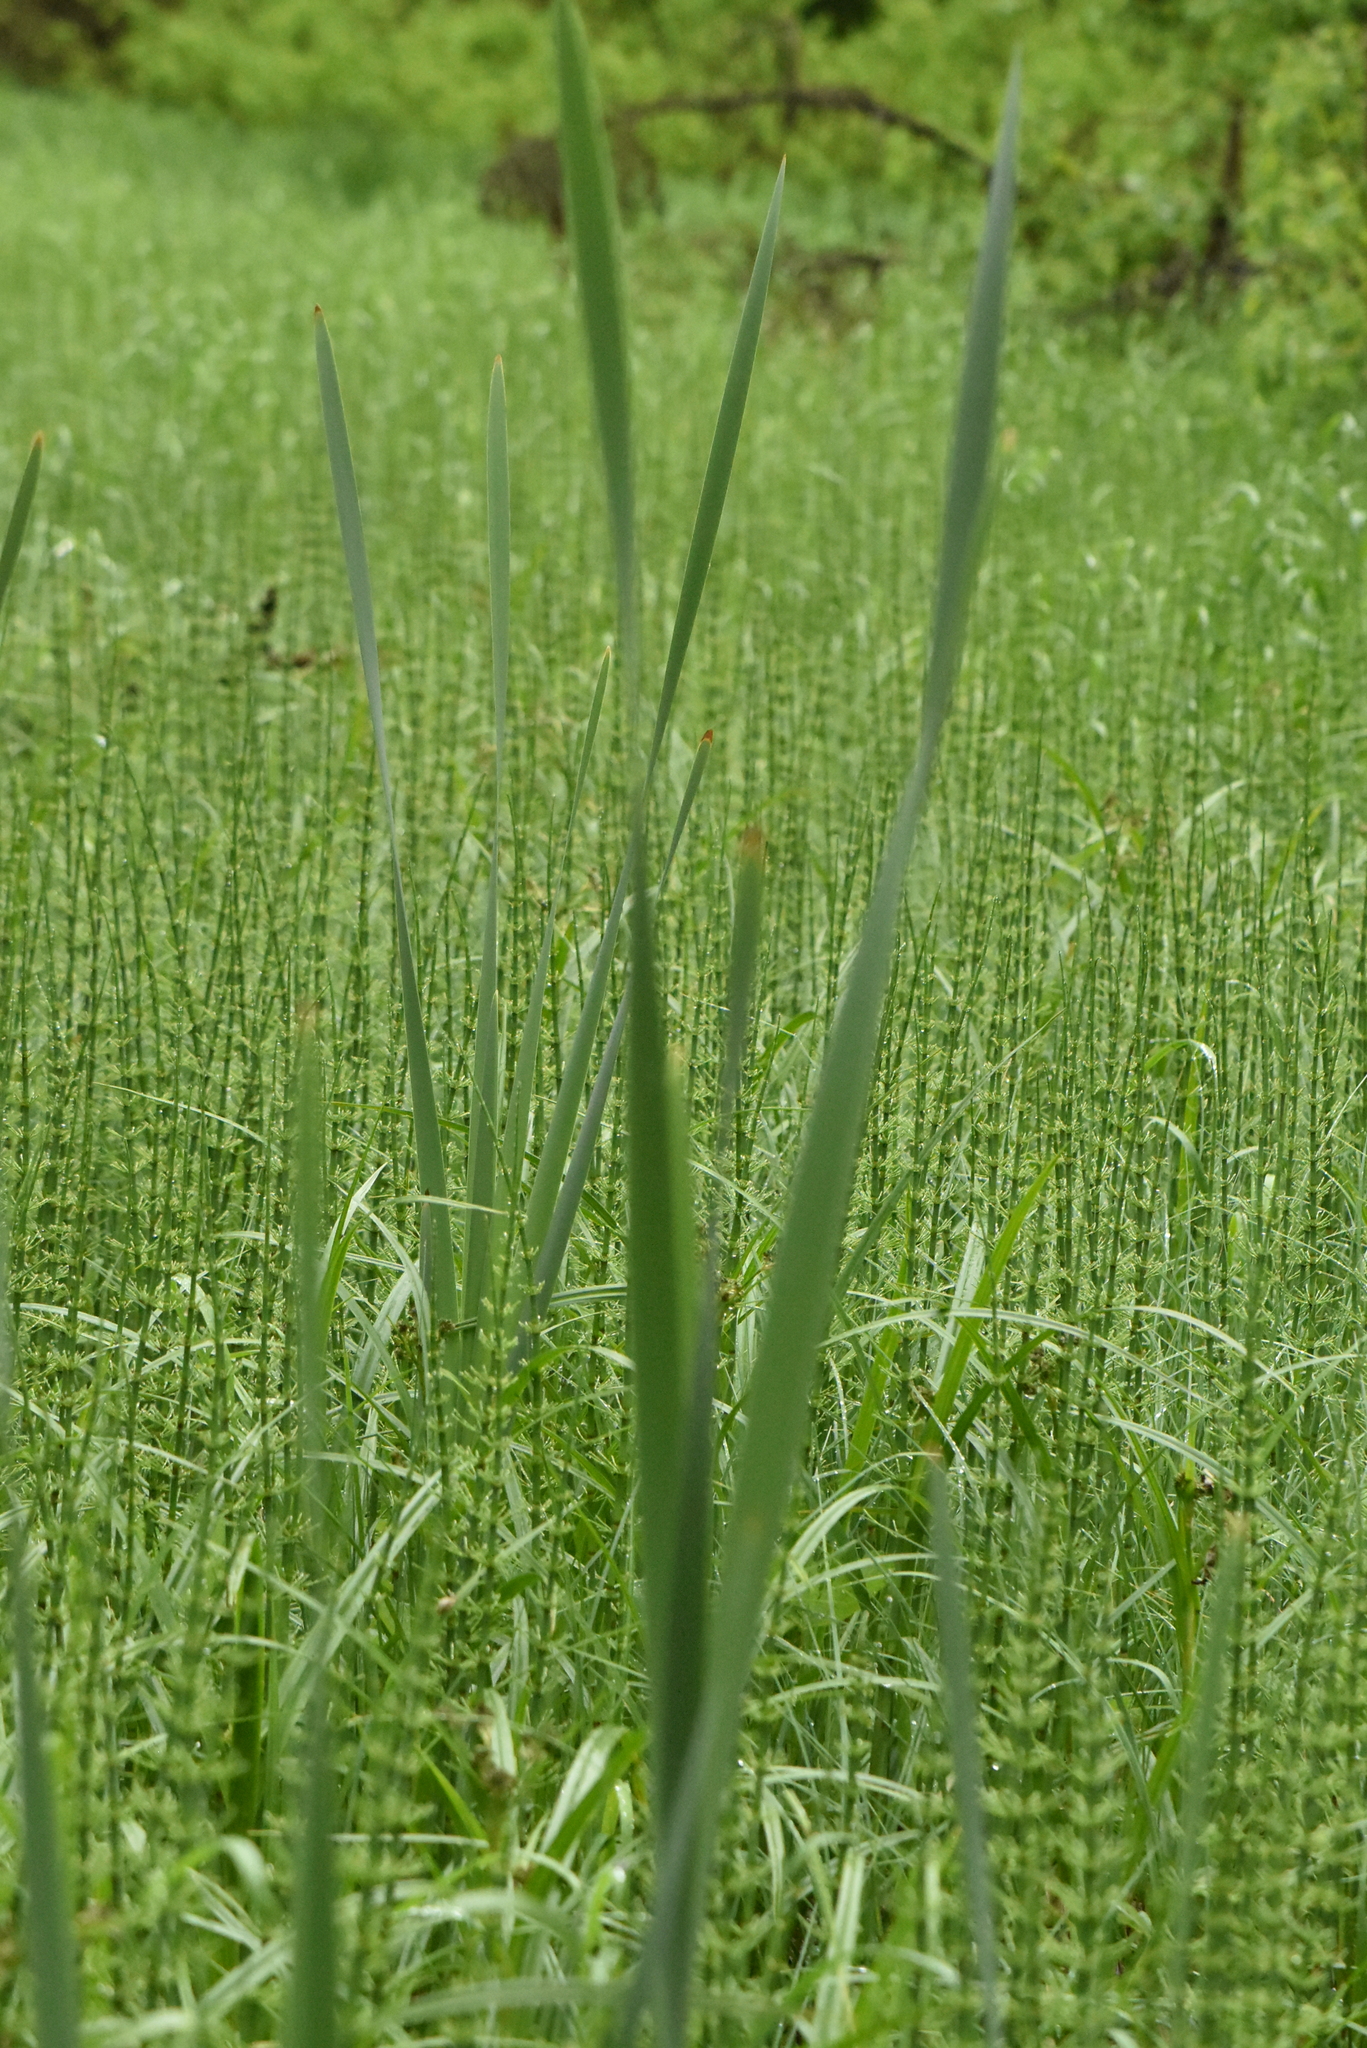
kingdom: Plantae
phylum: Tracheophyta
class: Liliopsida
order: Poales
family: Typhaceae
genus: Typha
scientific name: Typha latifolia
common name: Broadleaf cattail
